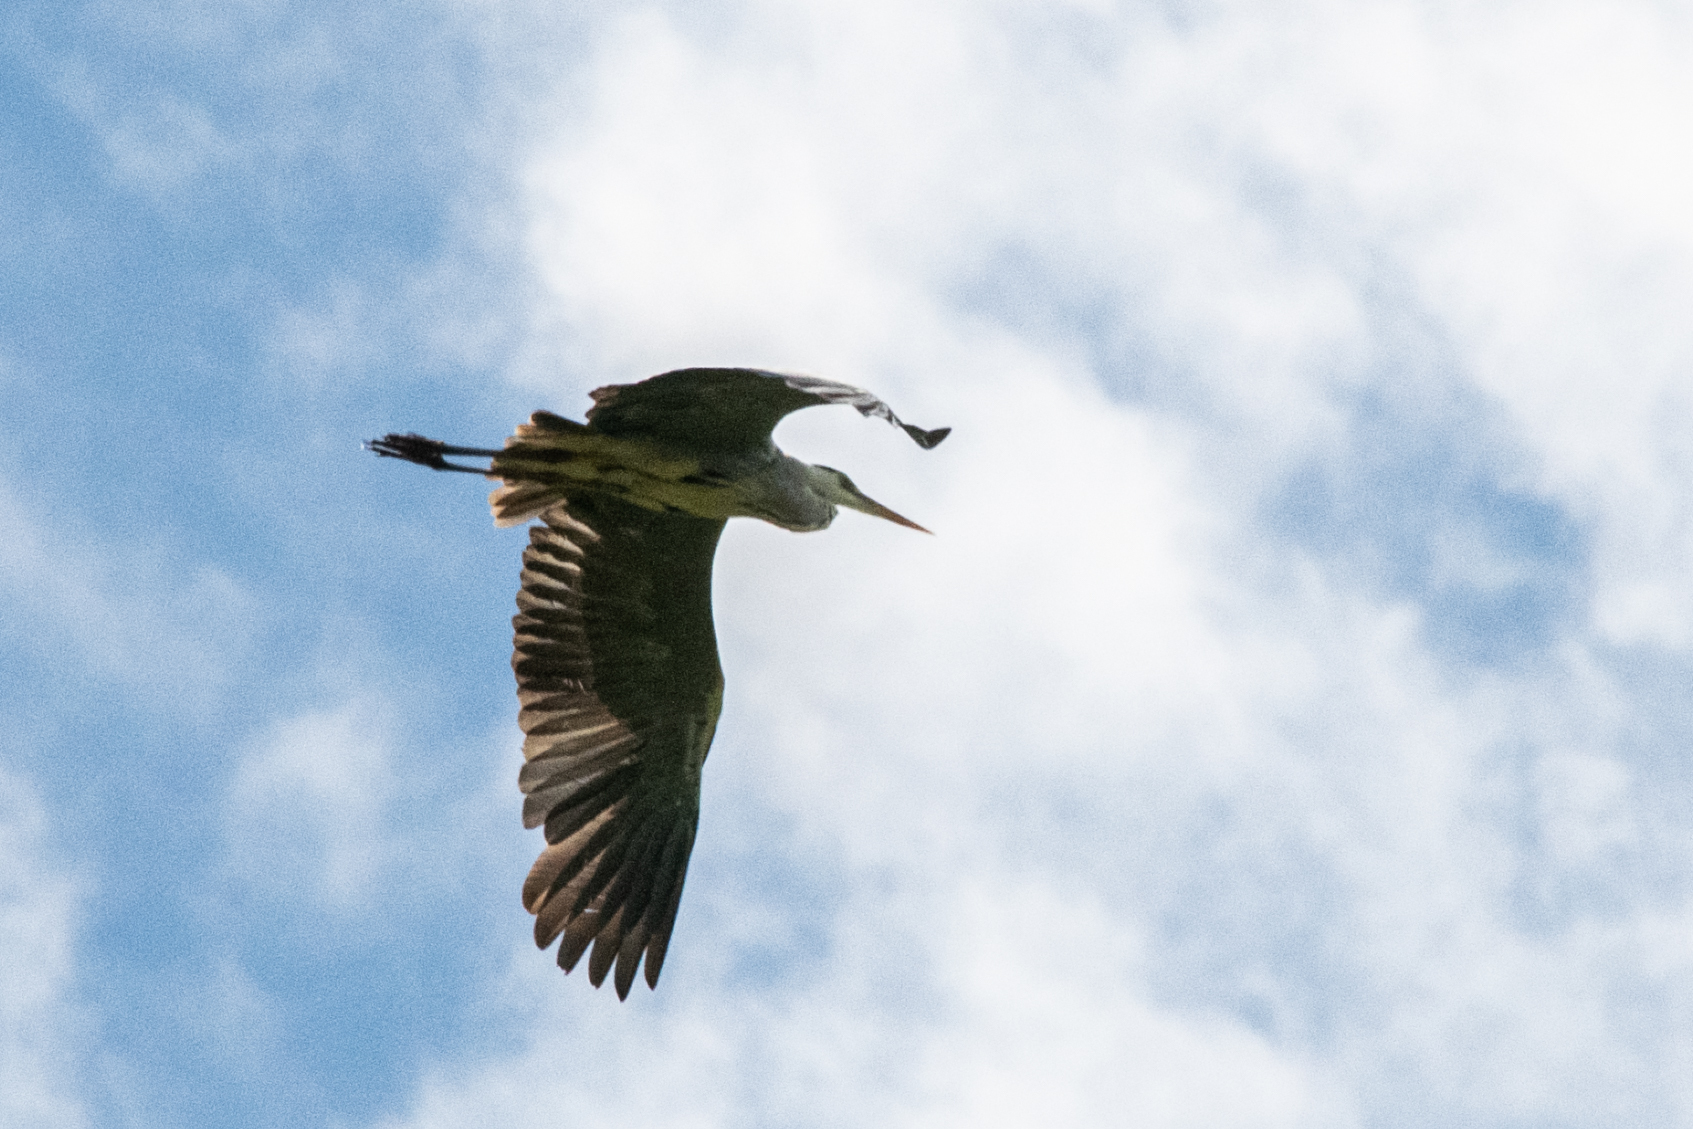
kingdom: Animalia
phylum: Chordata
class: Aves
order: Pelecaniformes
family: Ardeidae
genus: Ardea
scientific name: Ardea cinerea
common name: Grey heron
